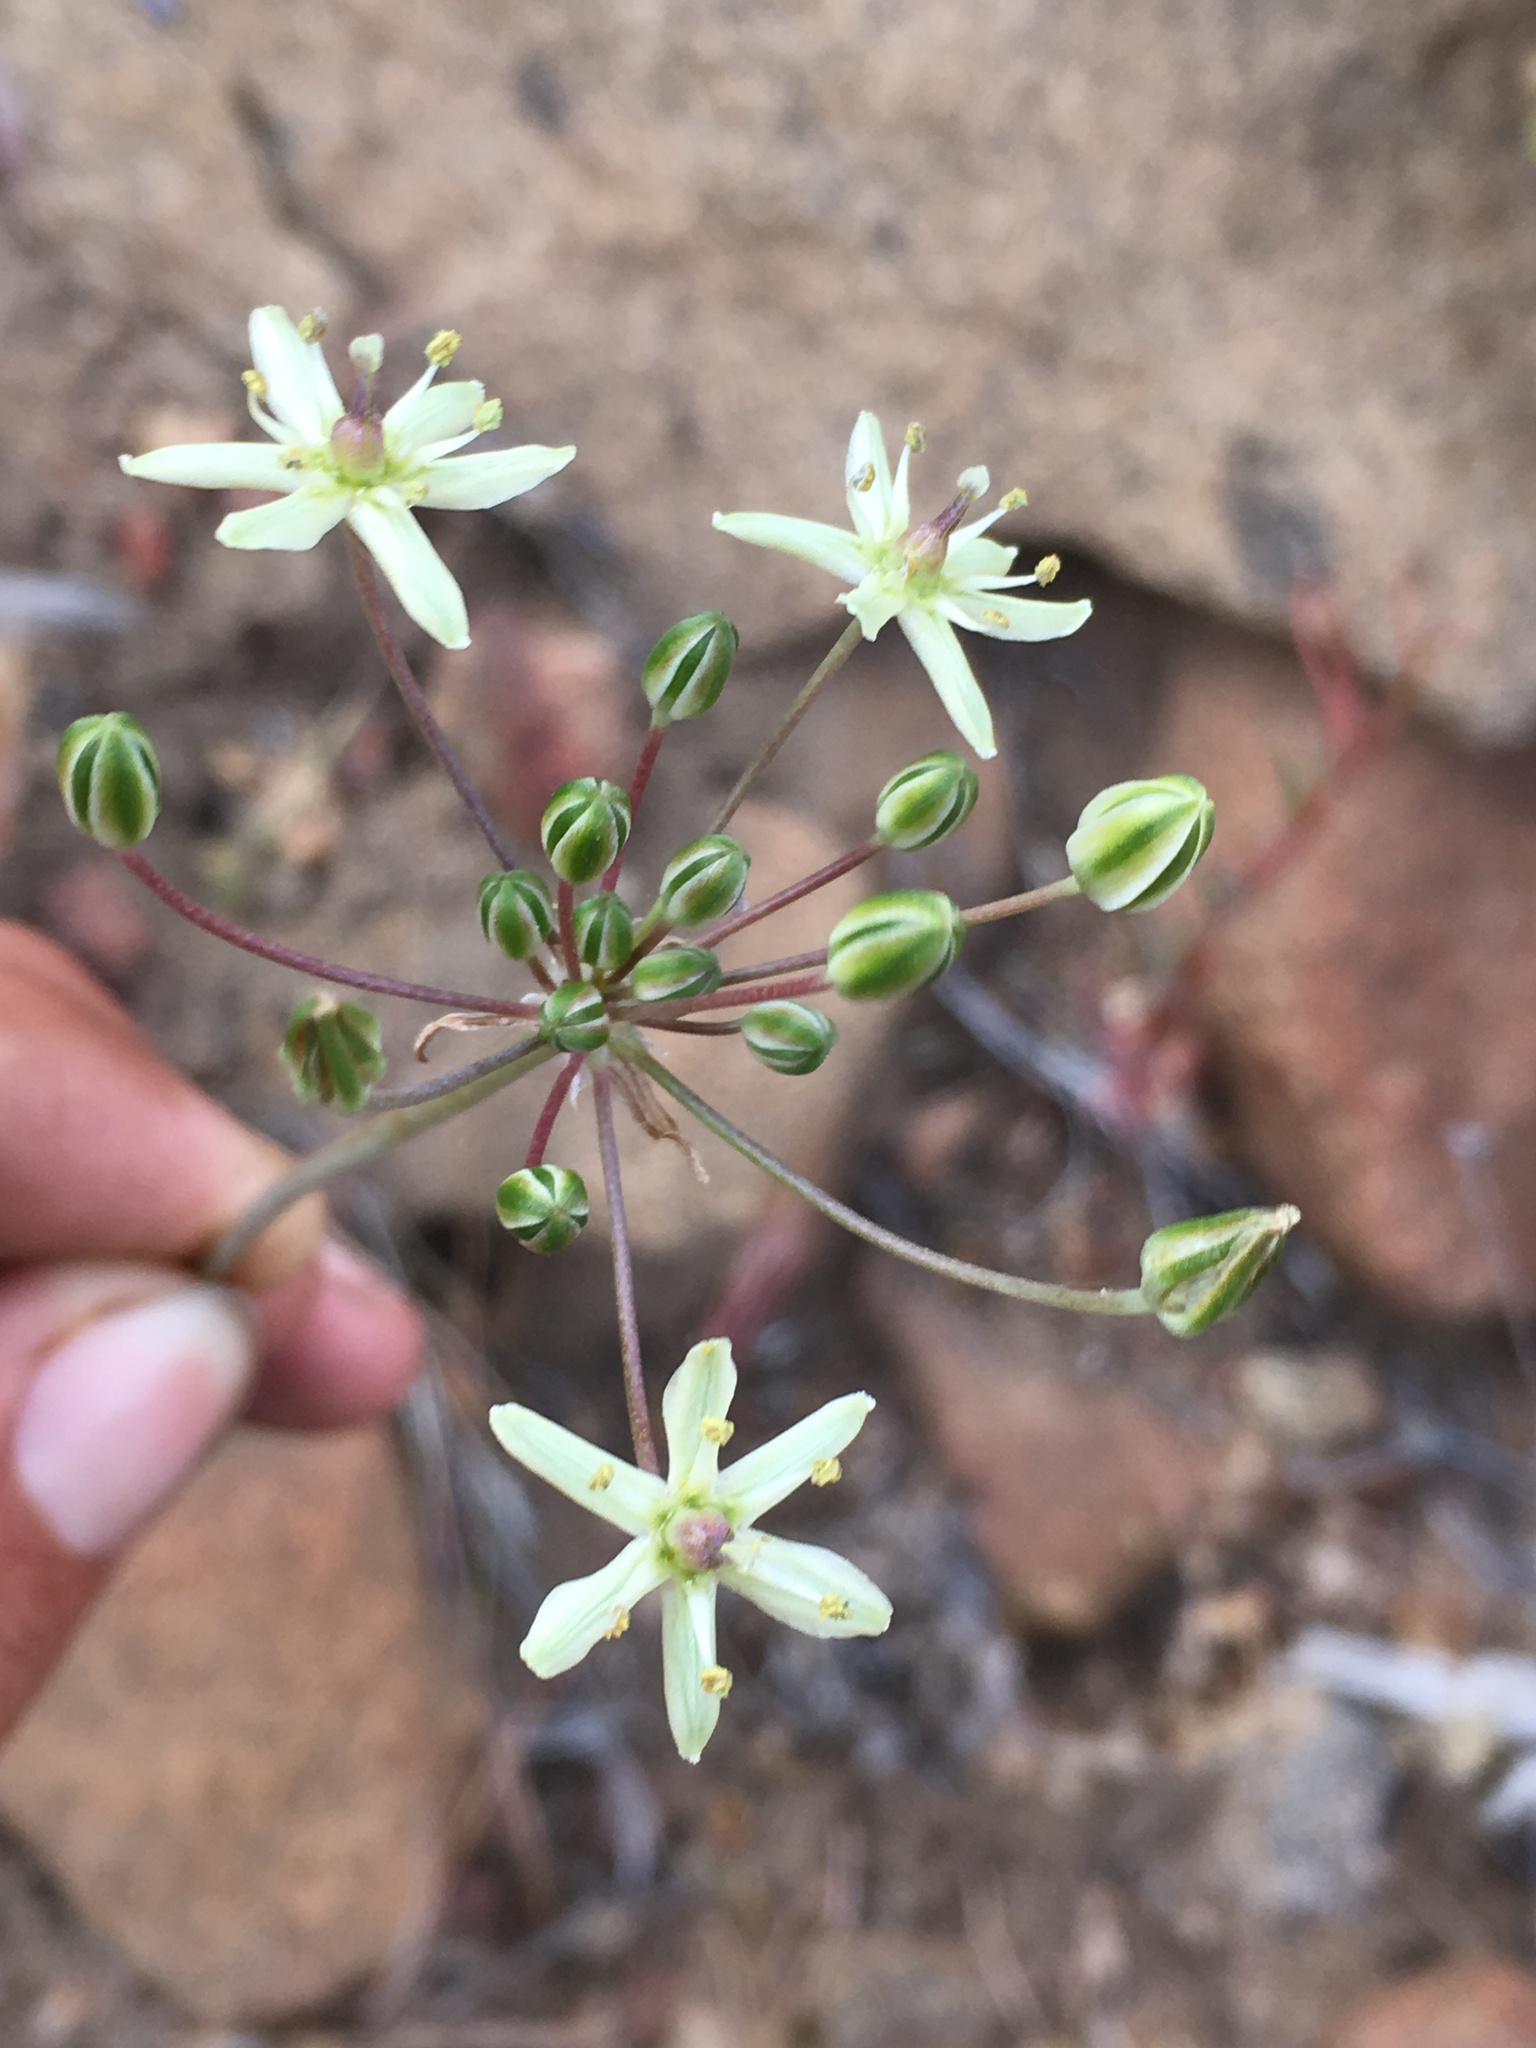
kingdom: Plantae
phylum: Tracheophyta
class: Liliopsida
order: Asparagales
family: Asparagaceae
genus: Muilla
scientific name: Muilla maritima
